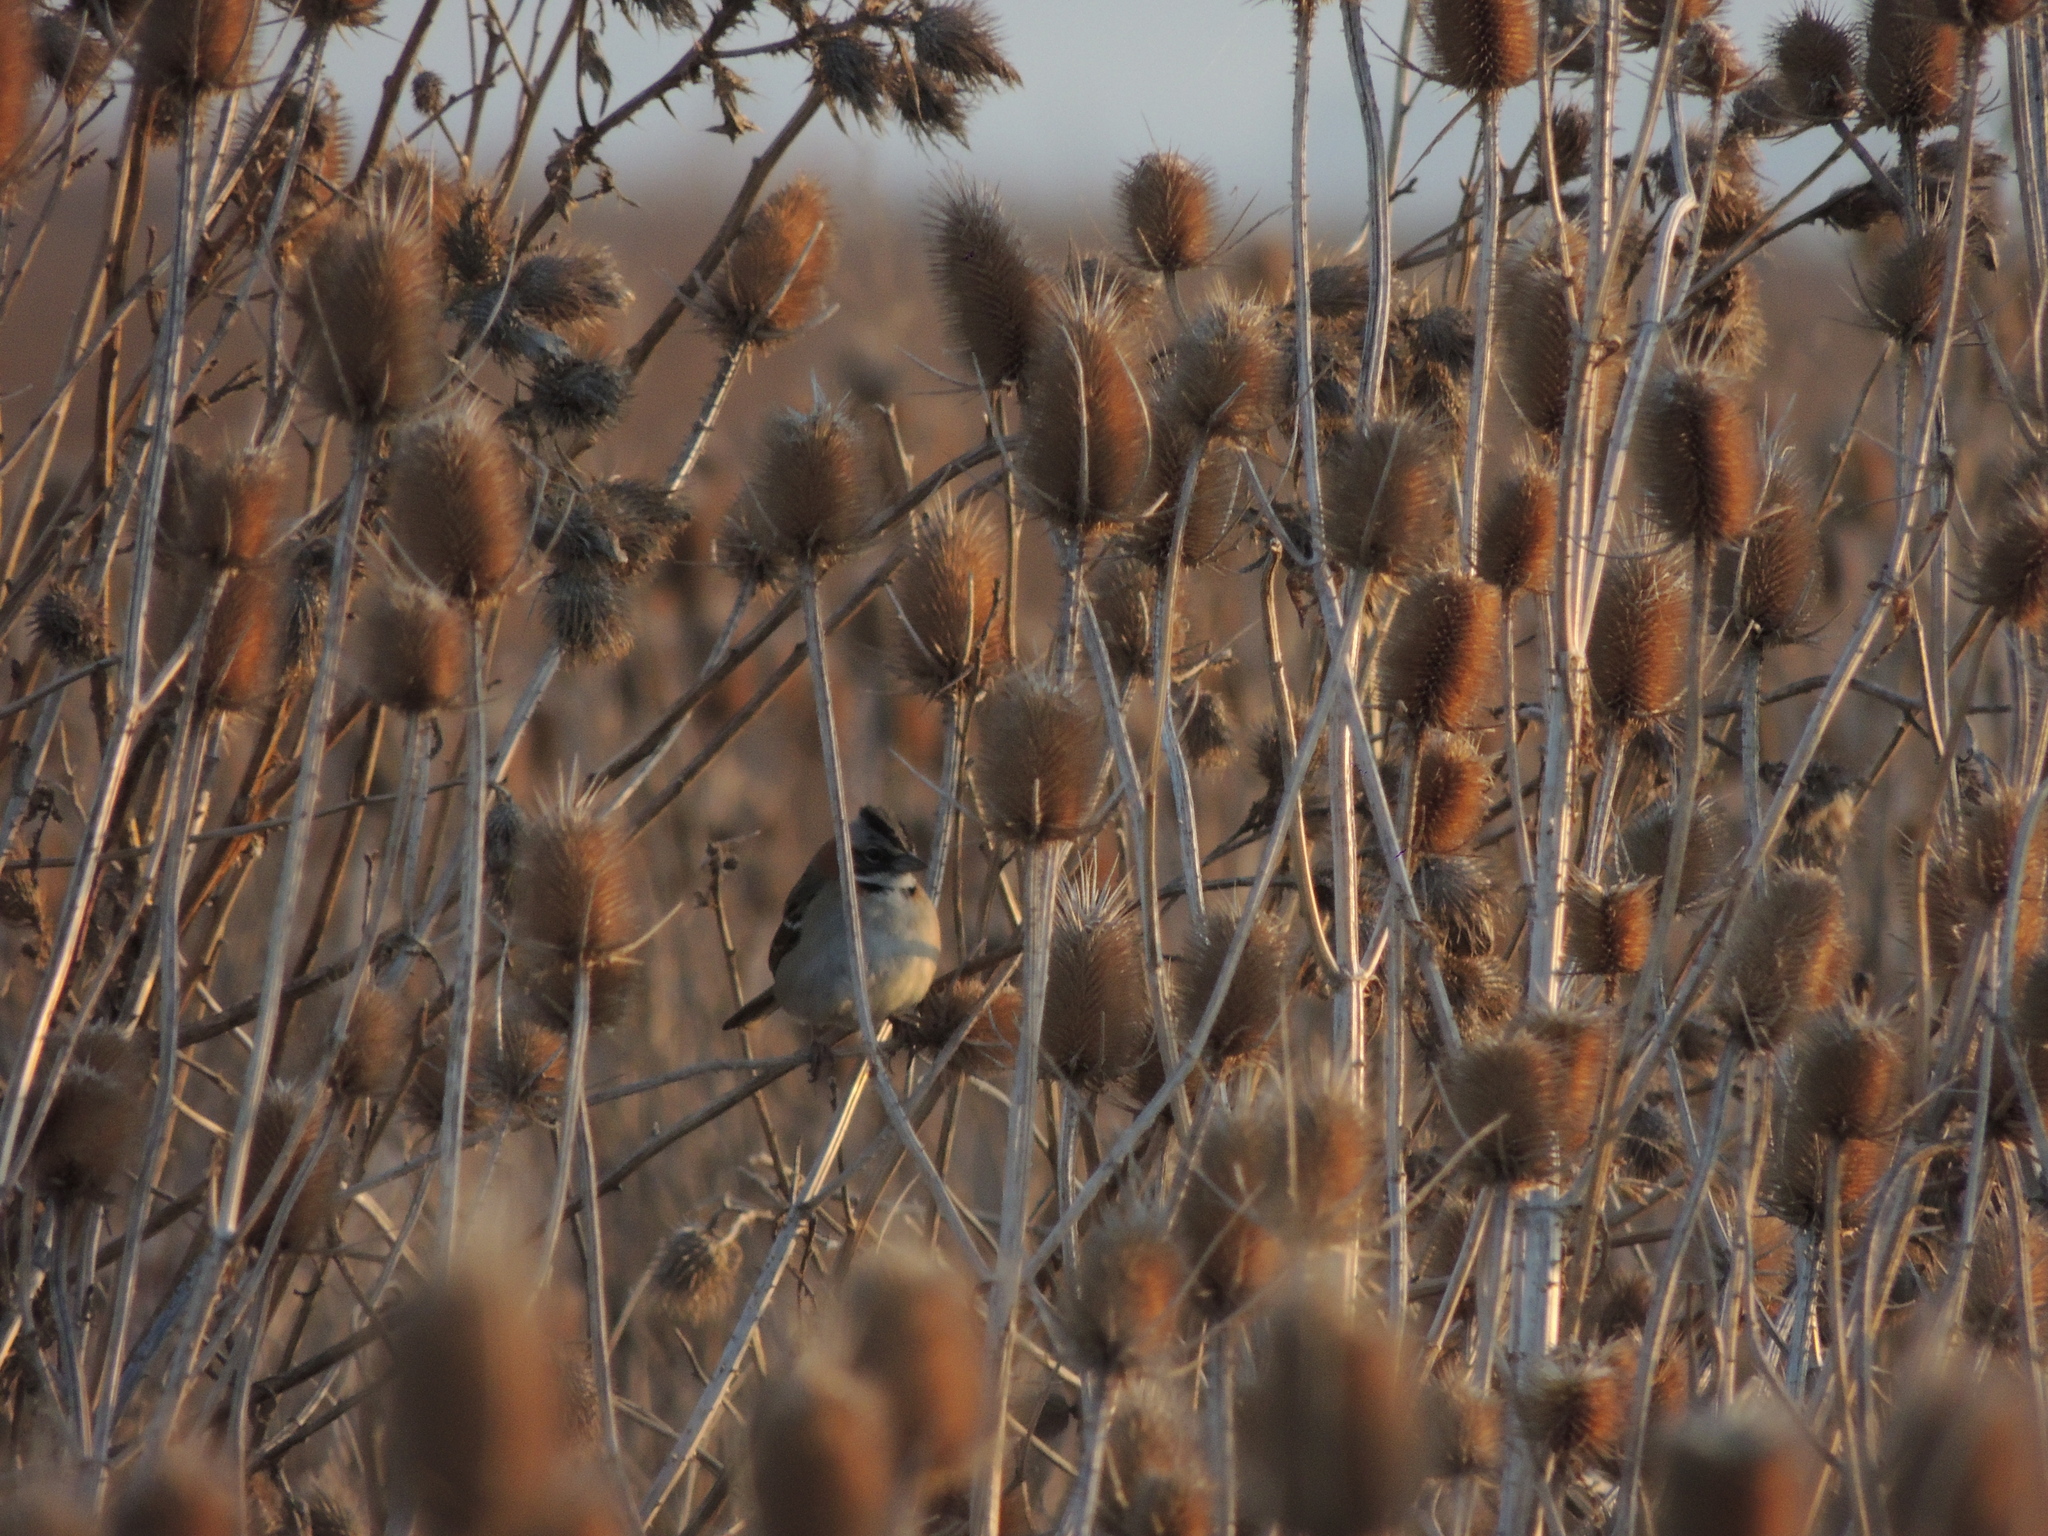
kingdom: Animalia
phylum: Chordata
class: Aves
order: Passeriformes
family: Passerellidae
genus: Zonotrichia
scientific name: Zonotrichia capensis
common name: Rufous-collared sparrow
